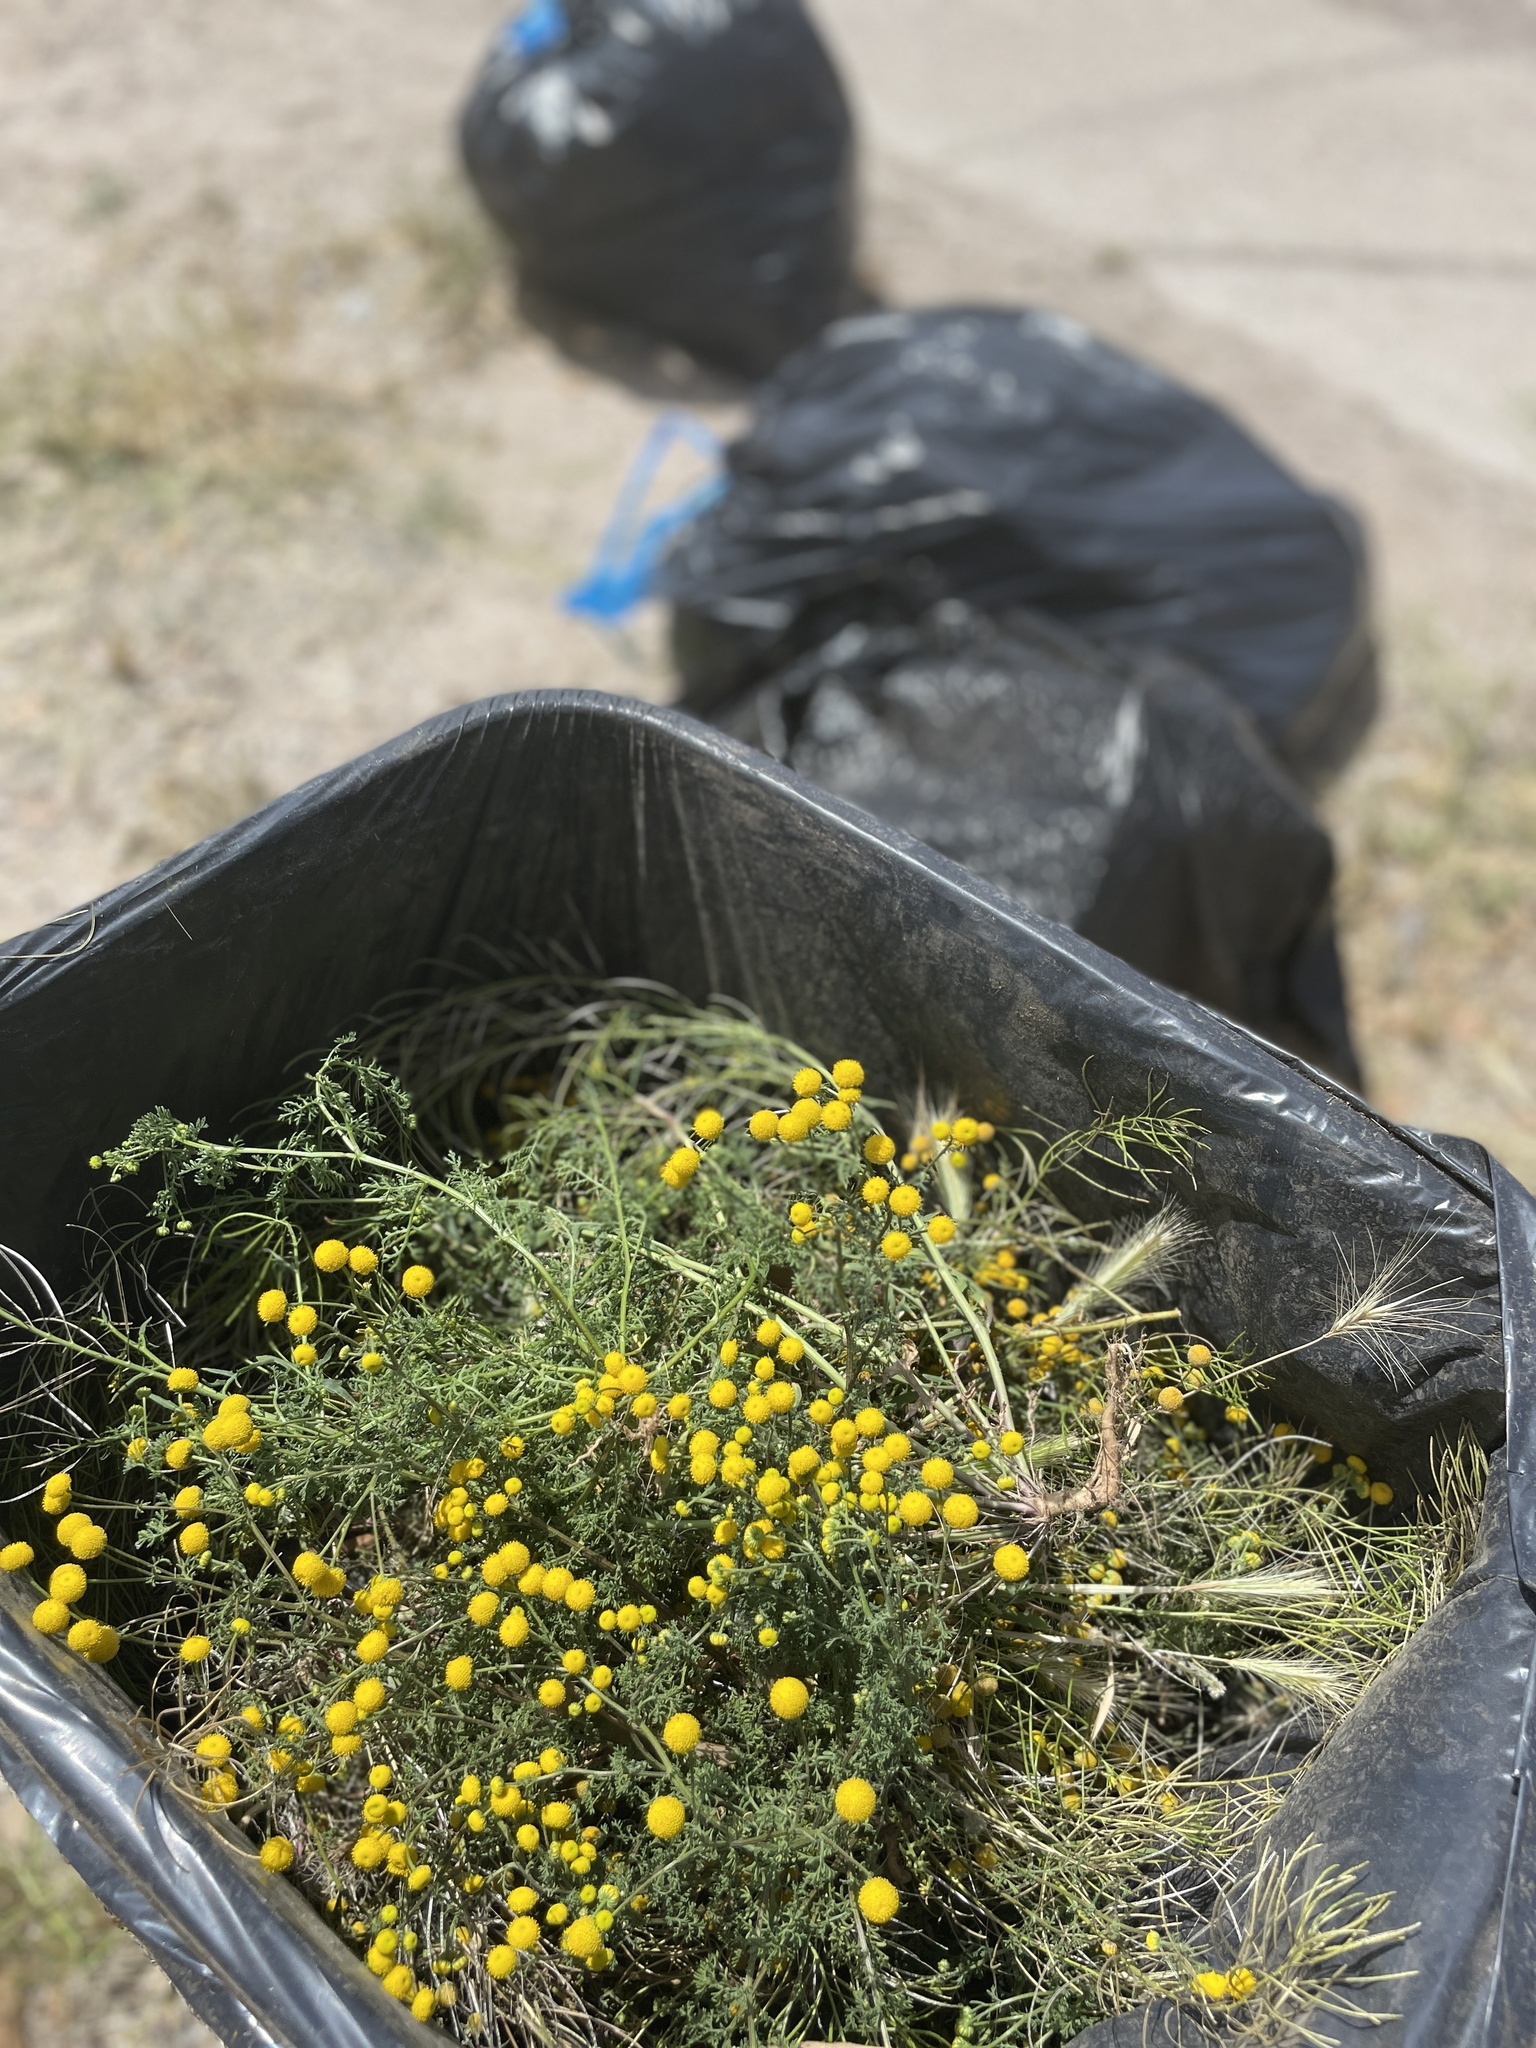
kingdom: Plantae
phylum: Tracheophyta
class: Magnoliopsida
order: Asterales
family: Asteraceae
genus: Oncosiphon
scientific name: Oncosiphon pilulifer
